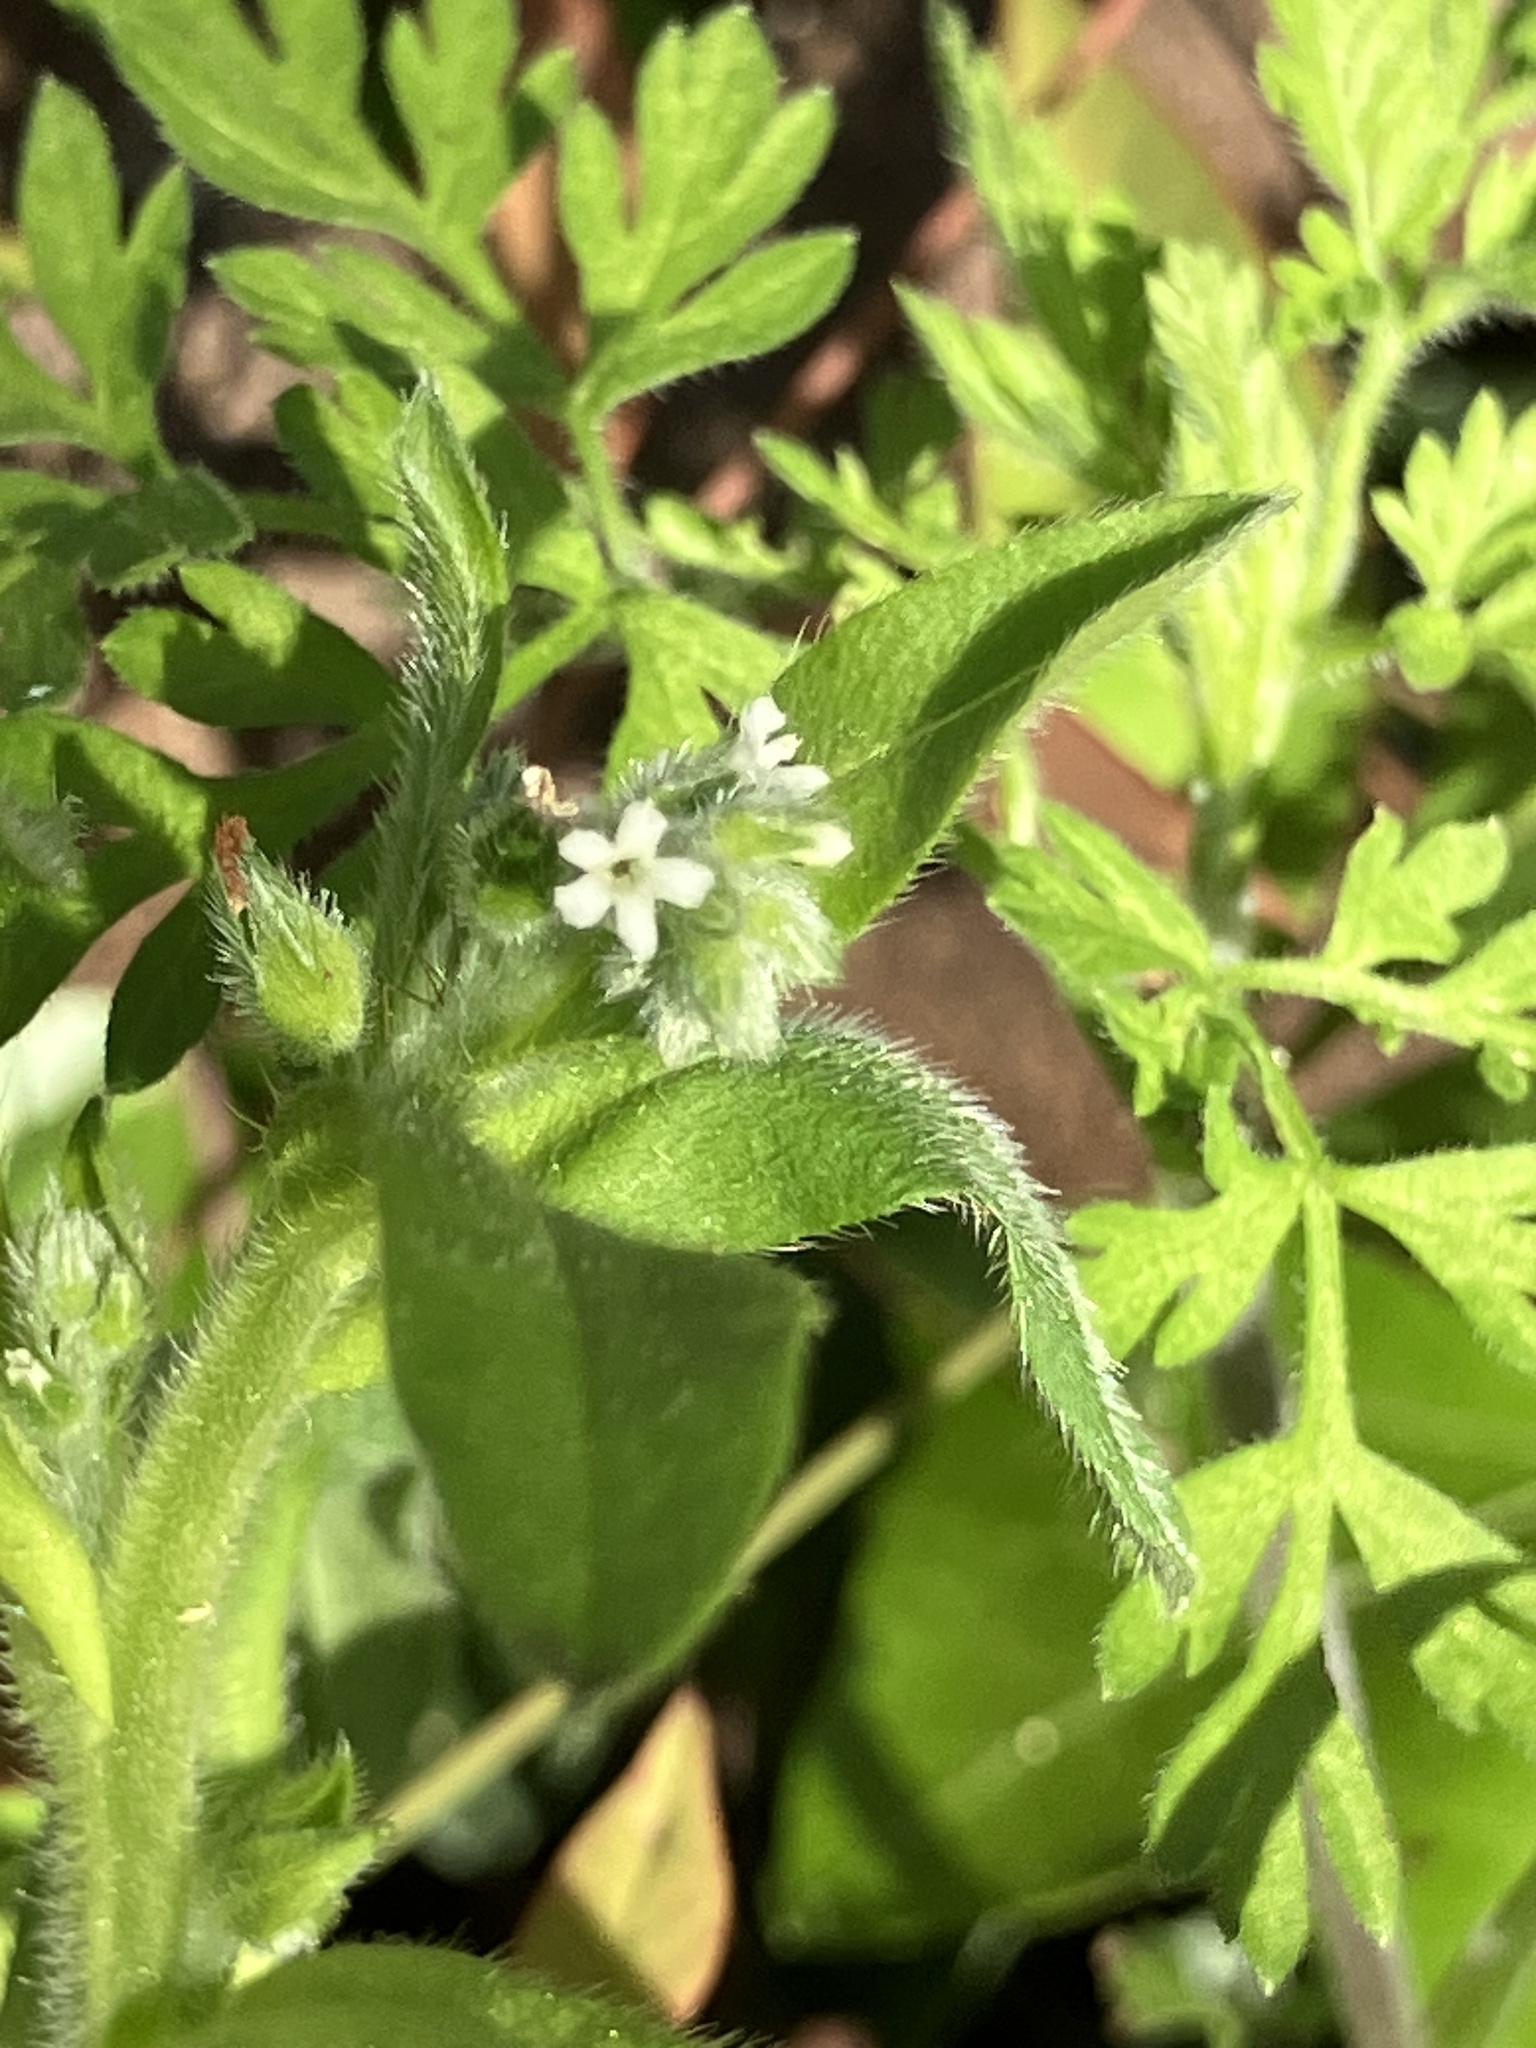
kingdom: Plantae
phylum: Tracheophyta
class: Magnoliopsida
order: Boraginales
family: Boraginaceae
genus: Myosotis
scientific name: Myosotis macrosperma
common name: Large-seed forget-me-not
